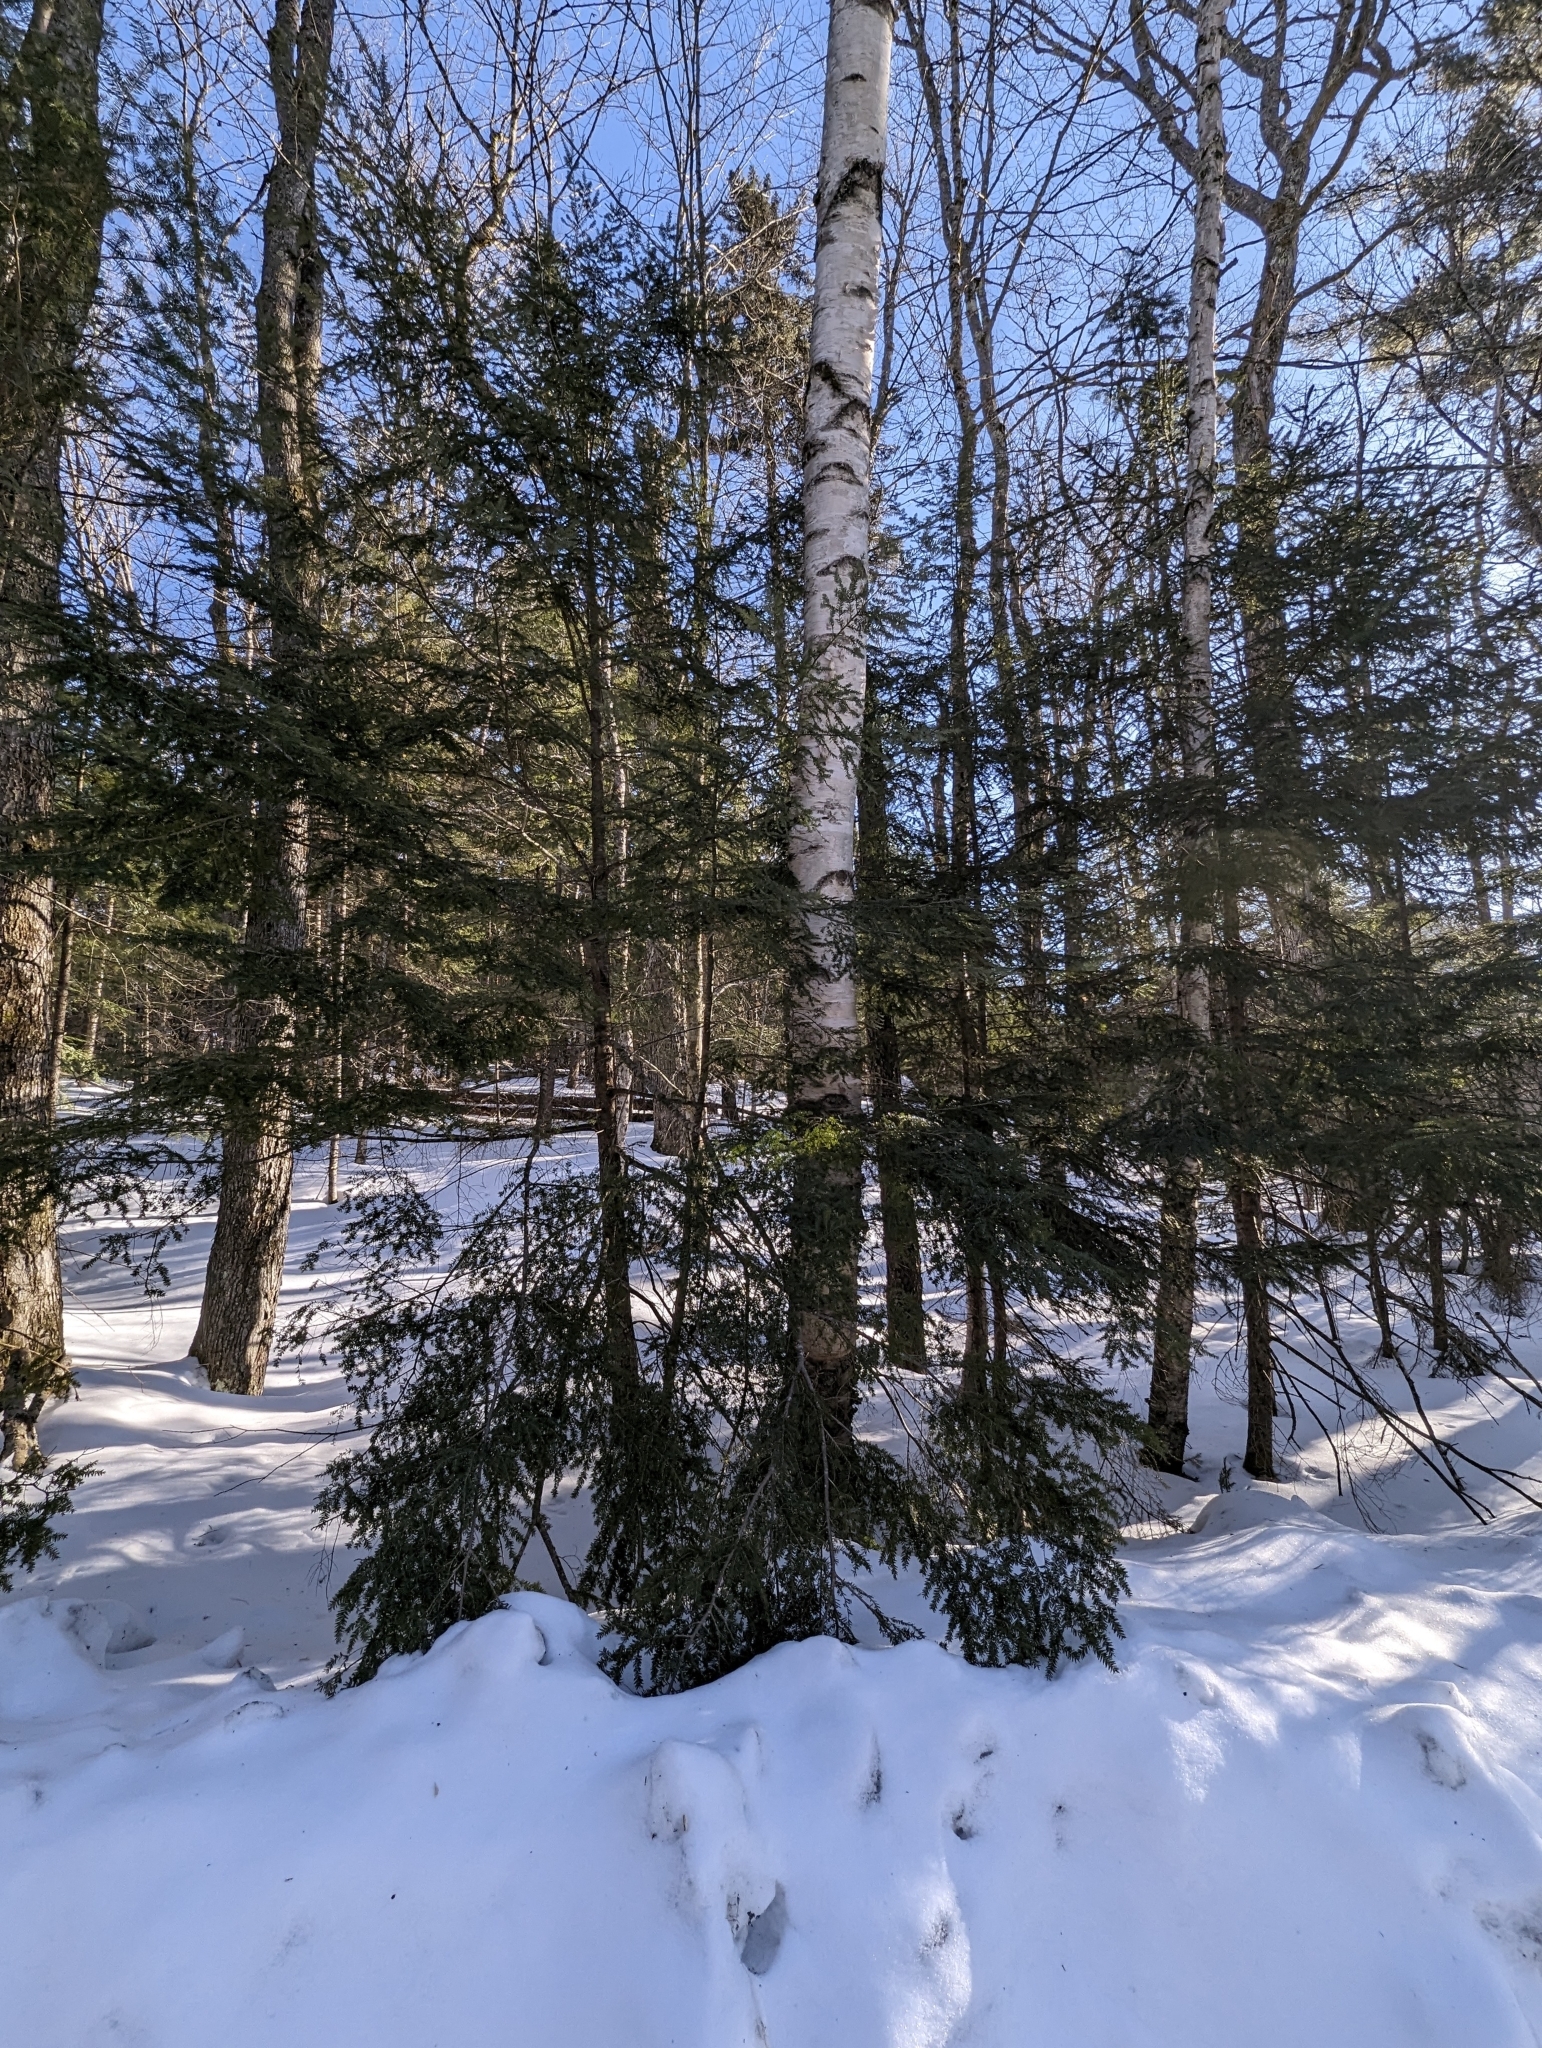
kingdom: Plantae
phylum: Tracheophyta
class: Pinopsida
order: Pinales
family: Pinaceae
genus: Tsuga
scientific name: Tsuga canadensis
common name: Eastern hemlock
